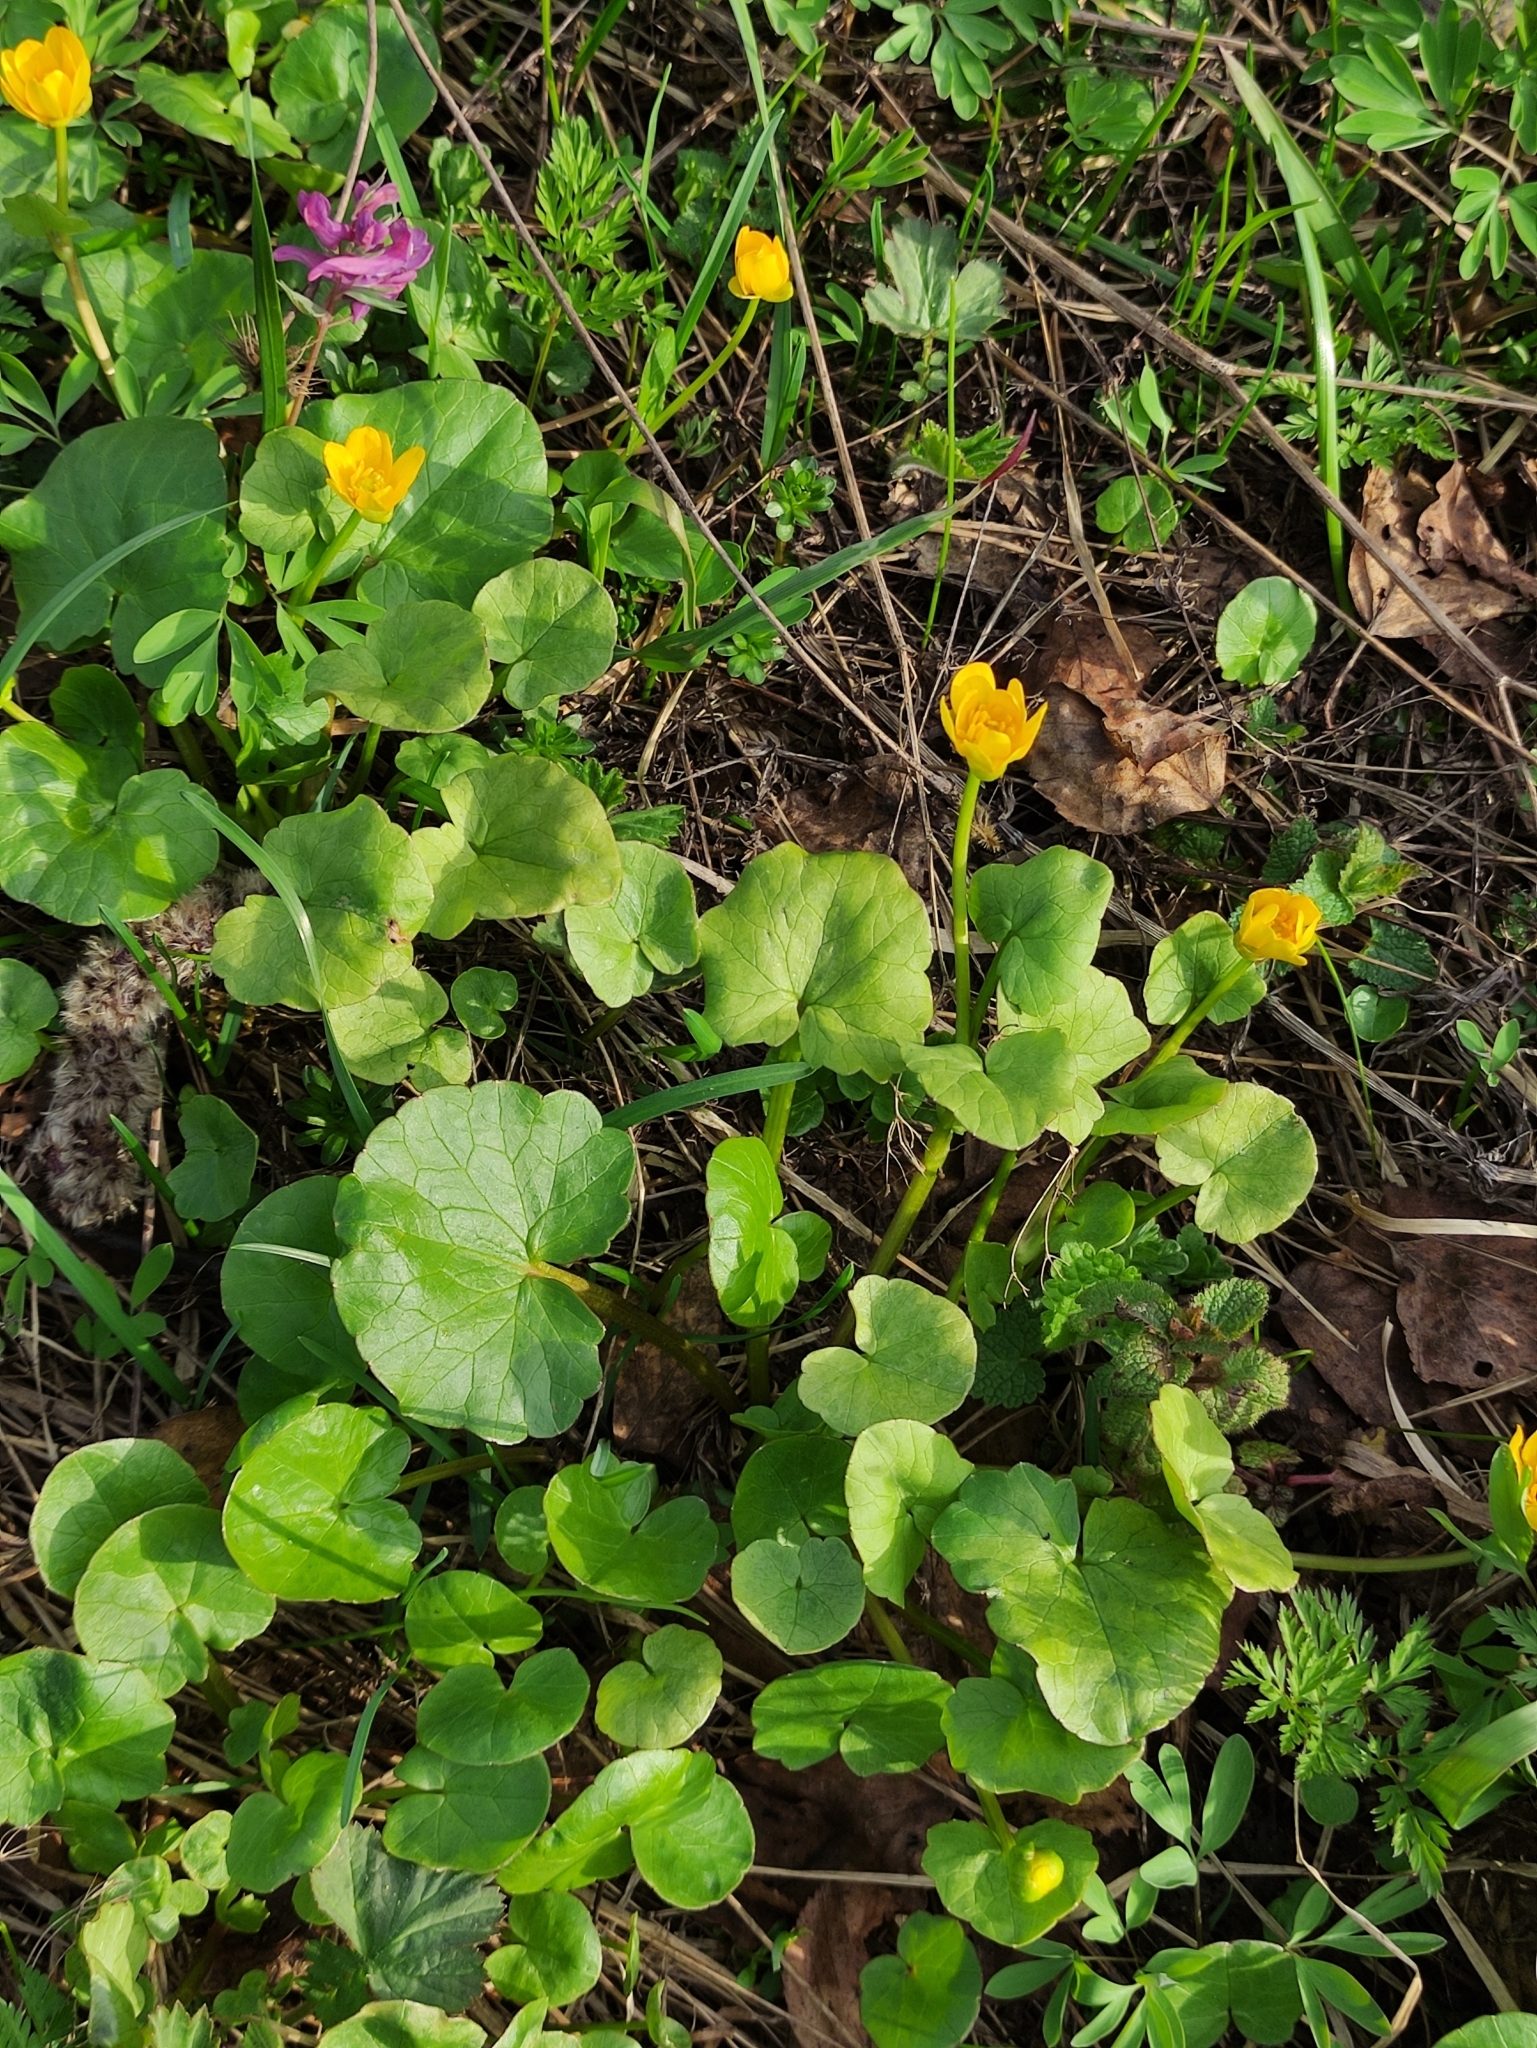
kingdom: Plantae
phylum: Tracheophyta
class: Magnoliopsida
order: Ranunculales
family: Ranunculaceae
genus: Ficaria
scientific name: Ficaria verna
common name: Lesser celandine
